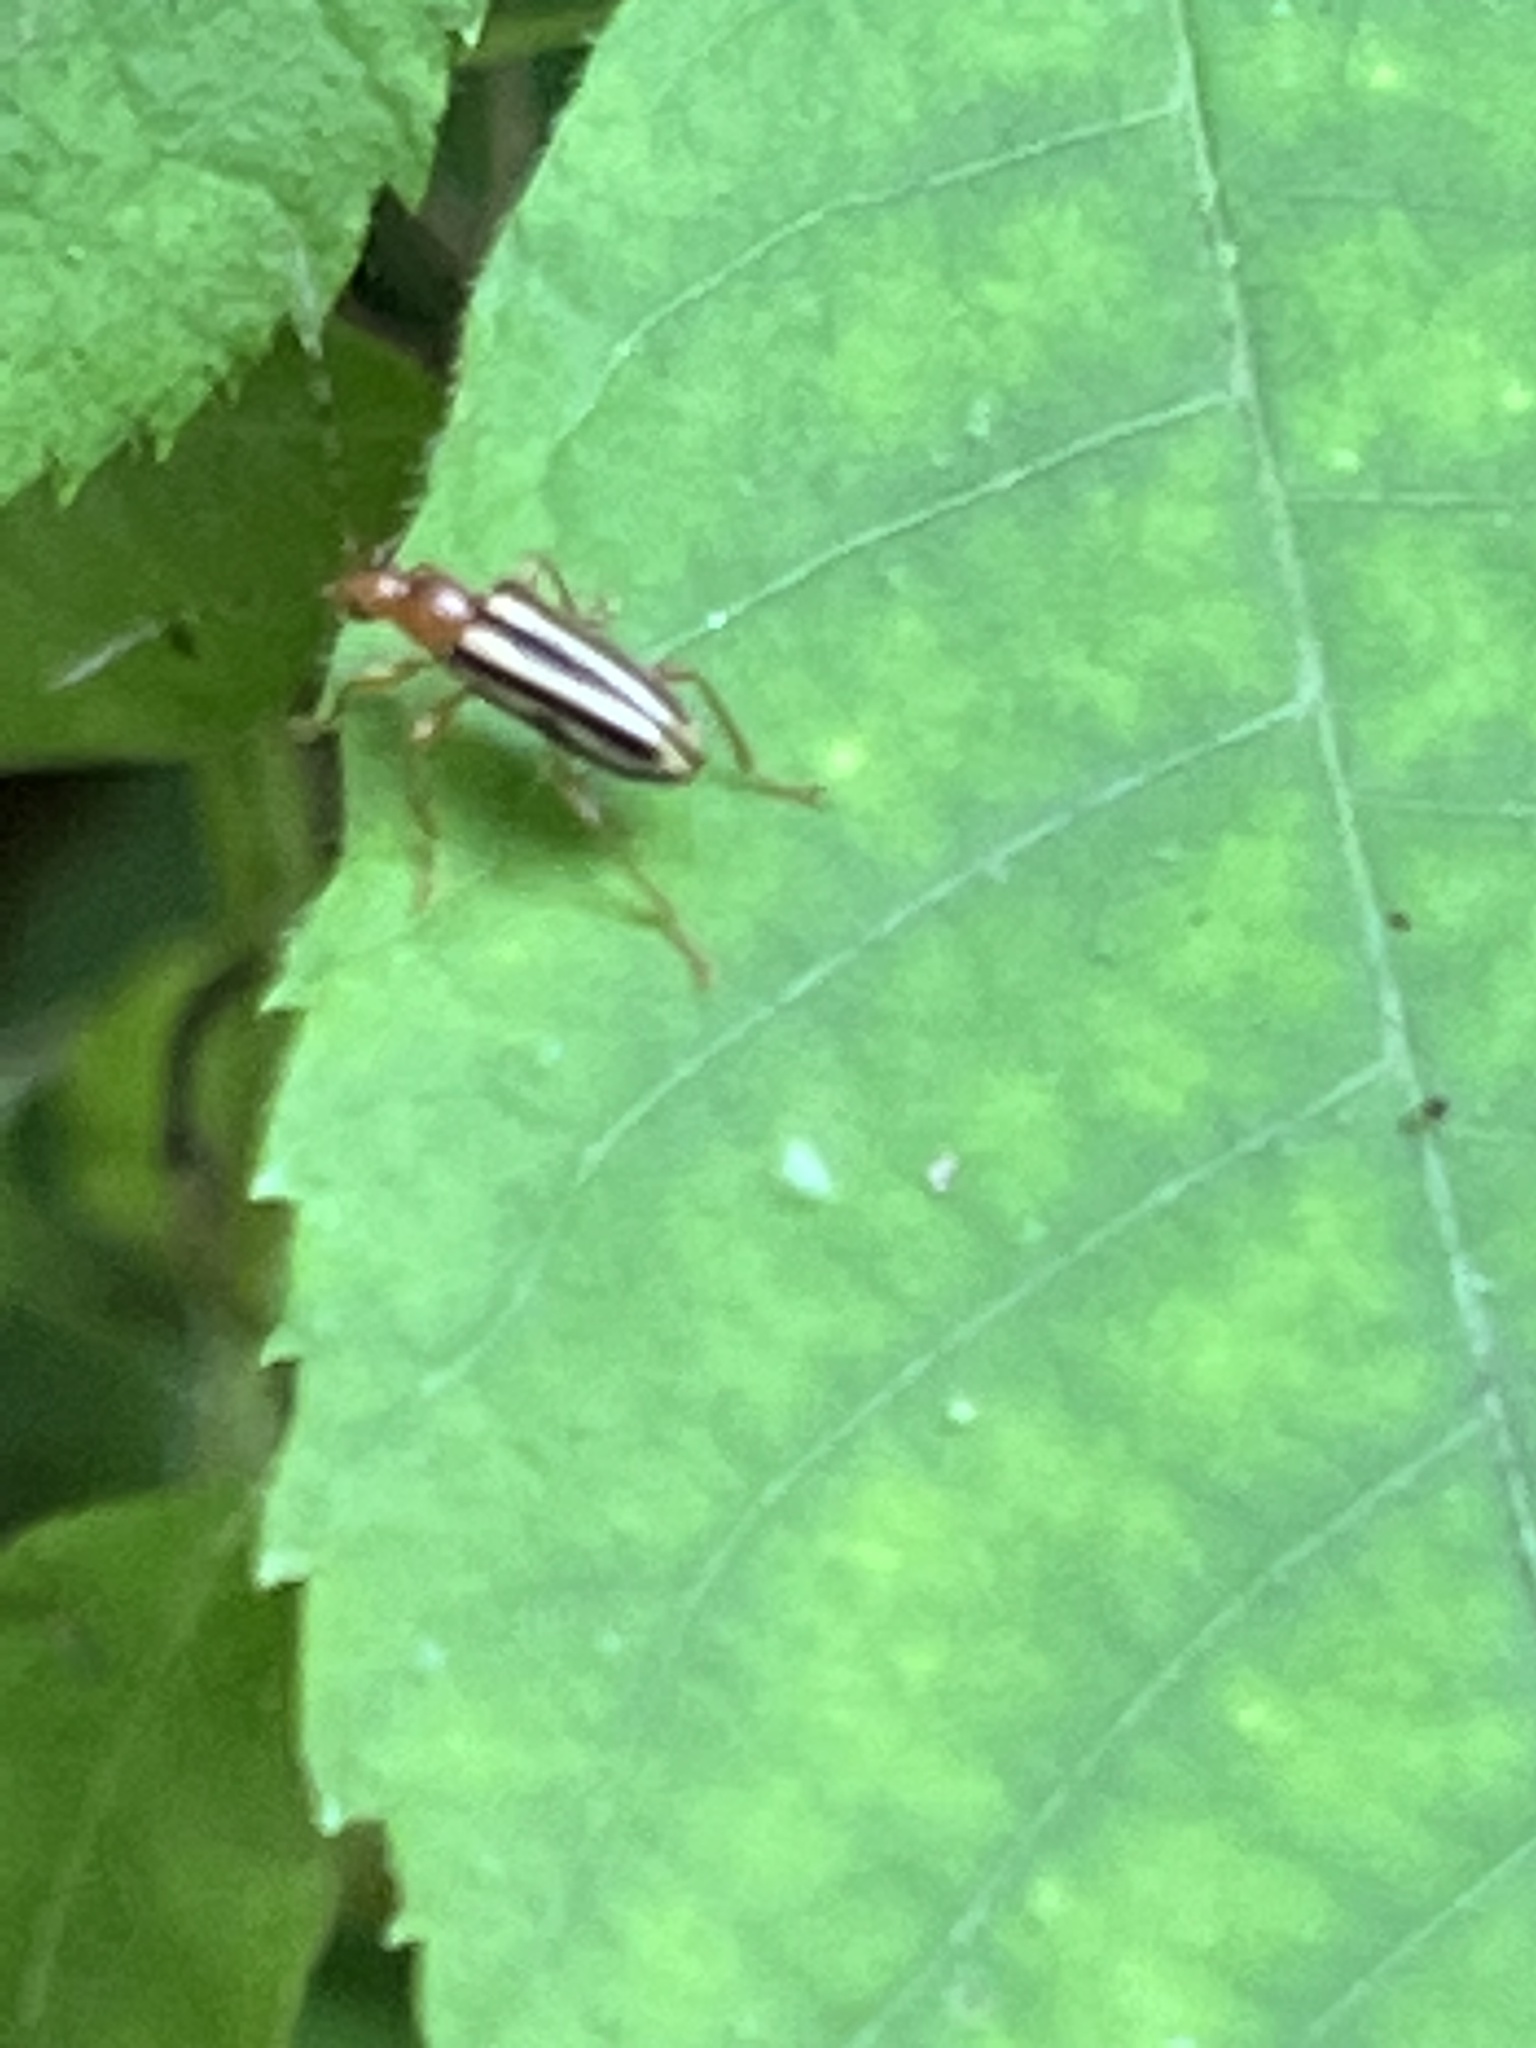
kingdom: Animalia
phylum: Arthropoda
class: Insecta
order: Coleoptera
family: Cerambycidae
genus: Metacmaeops
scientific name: Metacmaeops vittata
